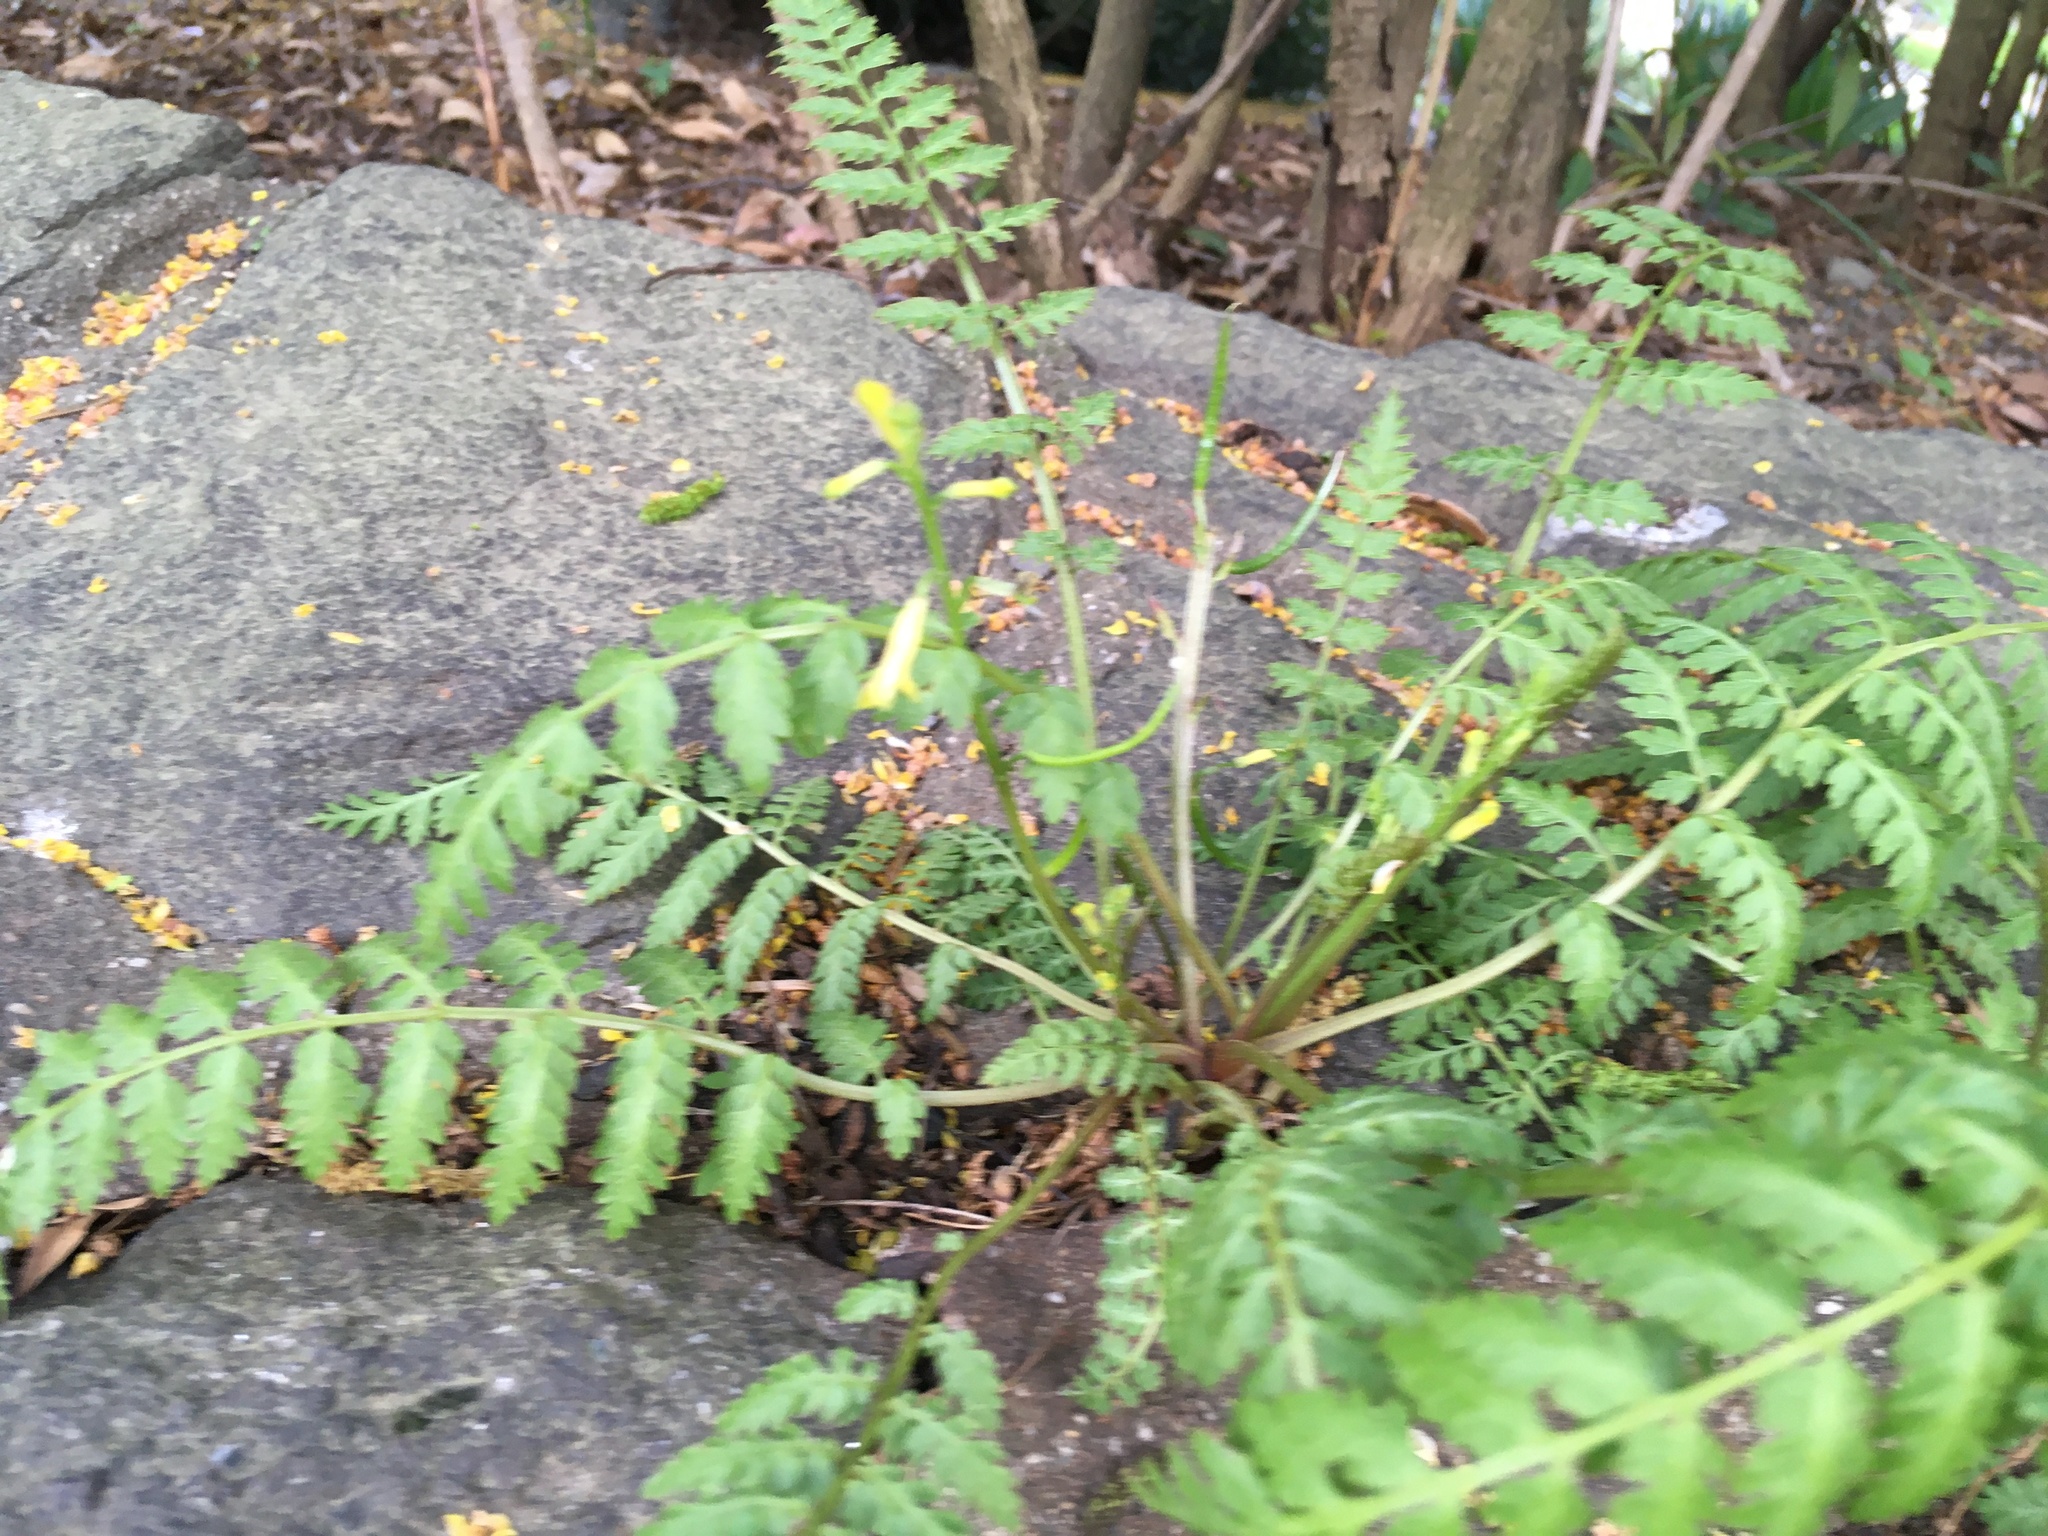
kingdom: Plantae
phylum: Tracheophyta
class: Magnoliopsida
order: Ranunculales
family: Papaveraceae
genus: Corydalis
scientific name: Corydalis cheilanthifolia
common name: Fern-leaved corydalis
